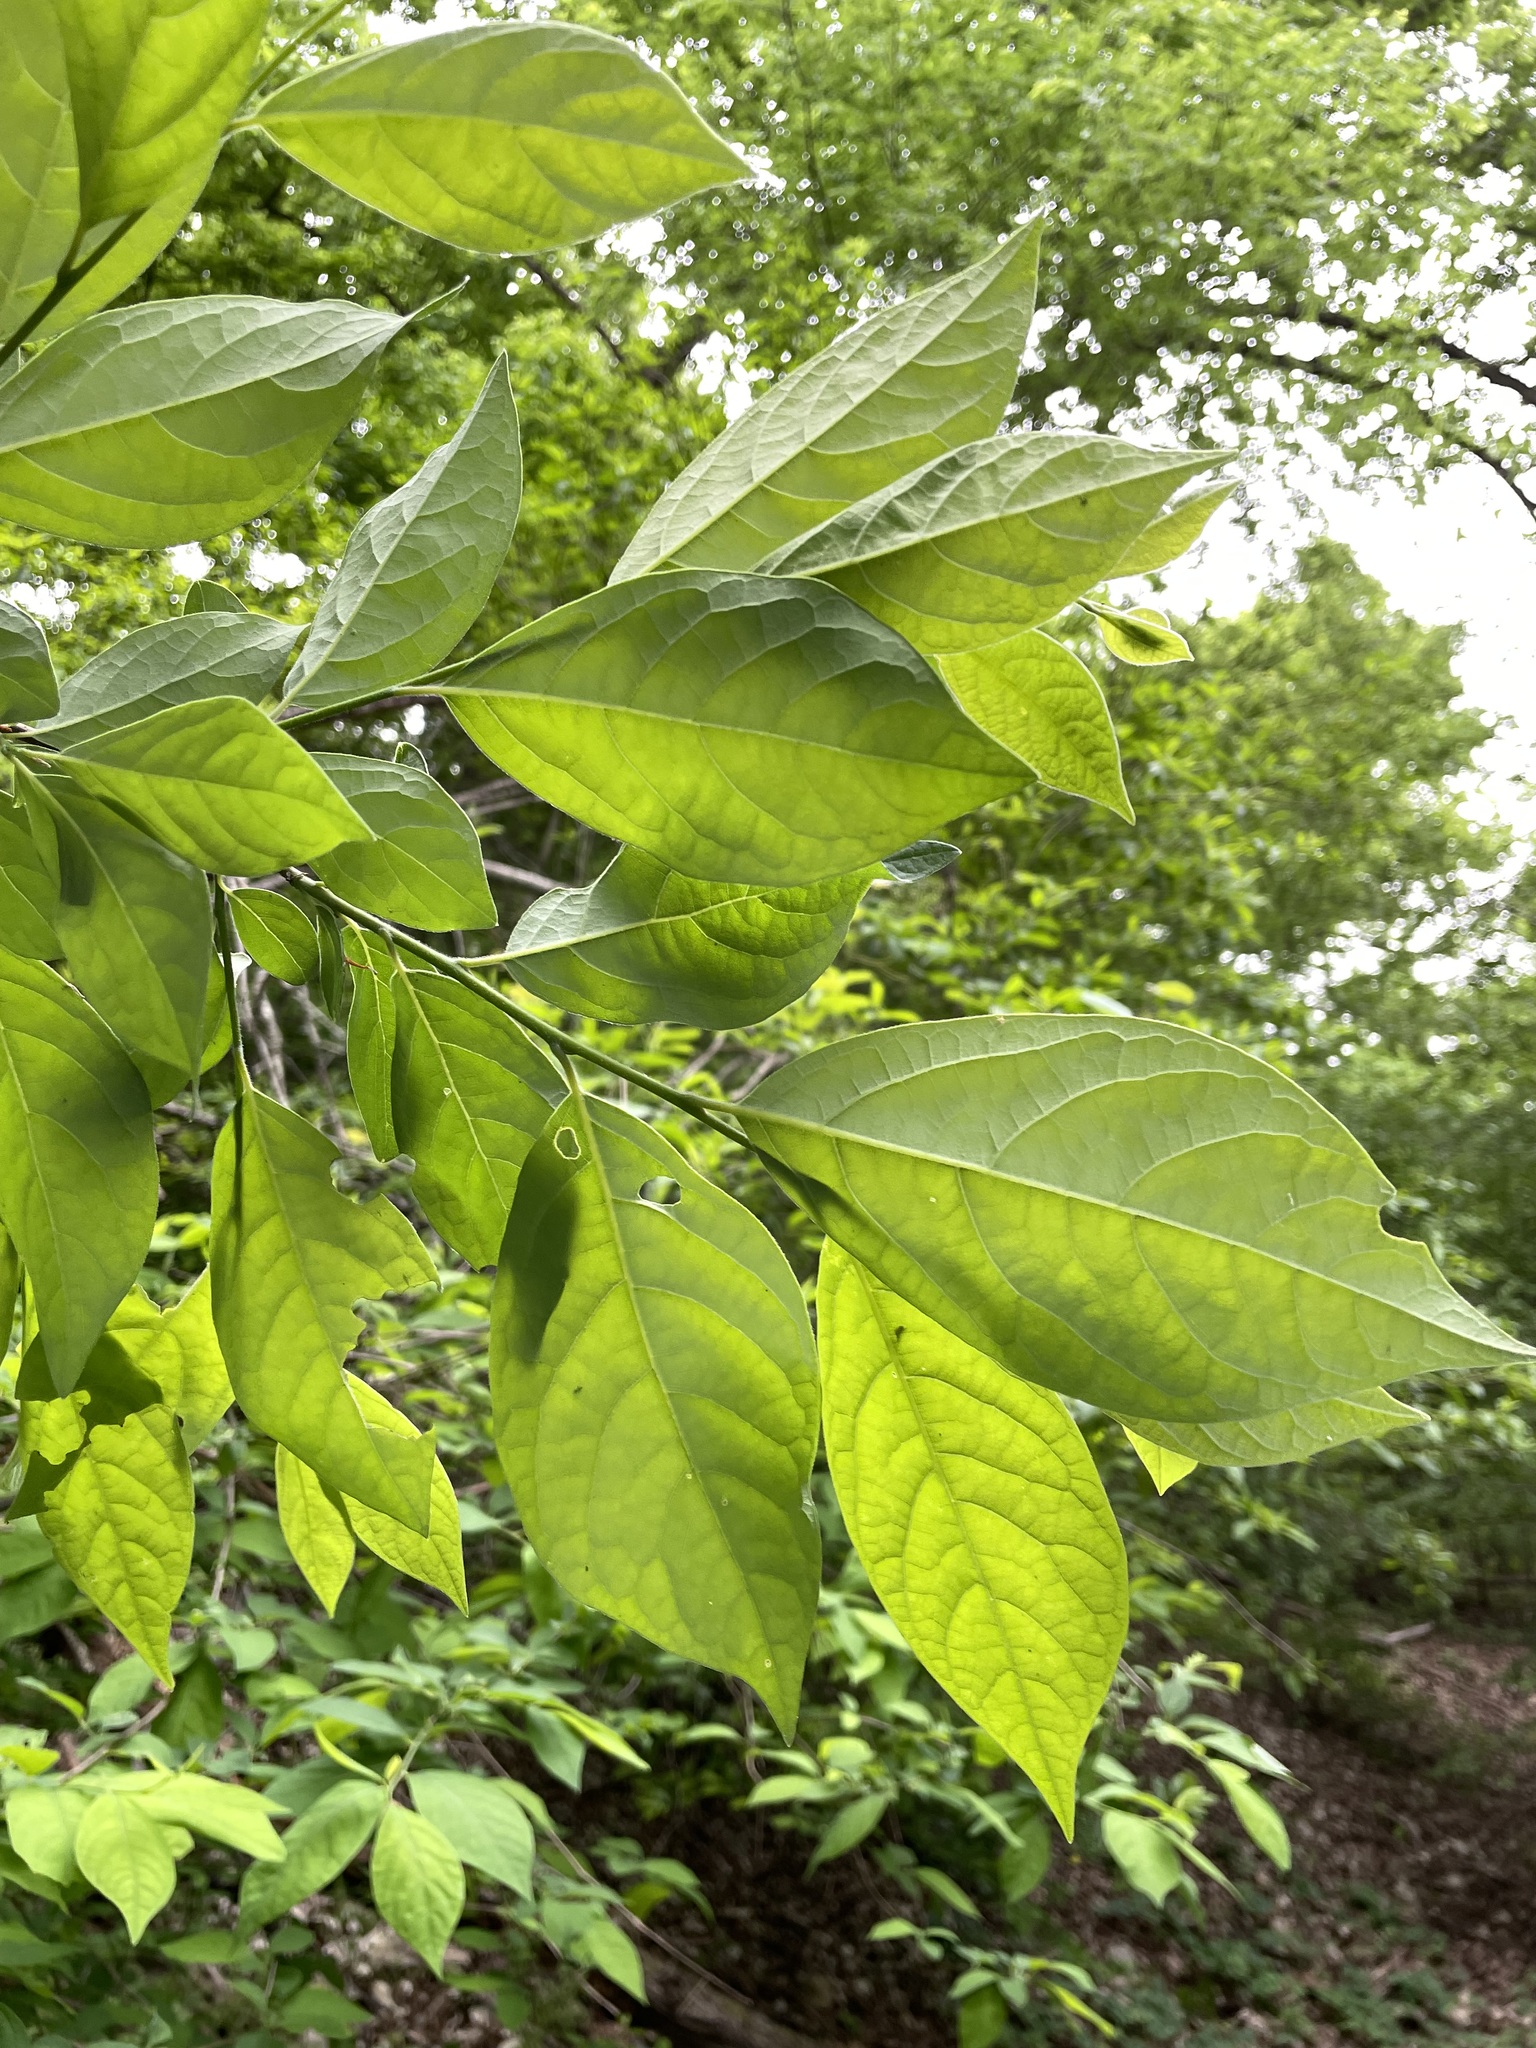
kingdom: Plantae
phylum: Tracheophyta
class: Magnoliopsida
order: Laurales
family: Lauraceae
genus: Lindera
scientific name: Lindera benzoin
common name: Spicebush
